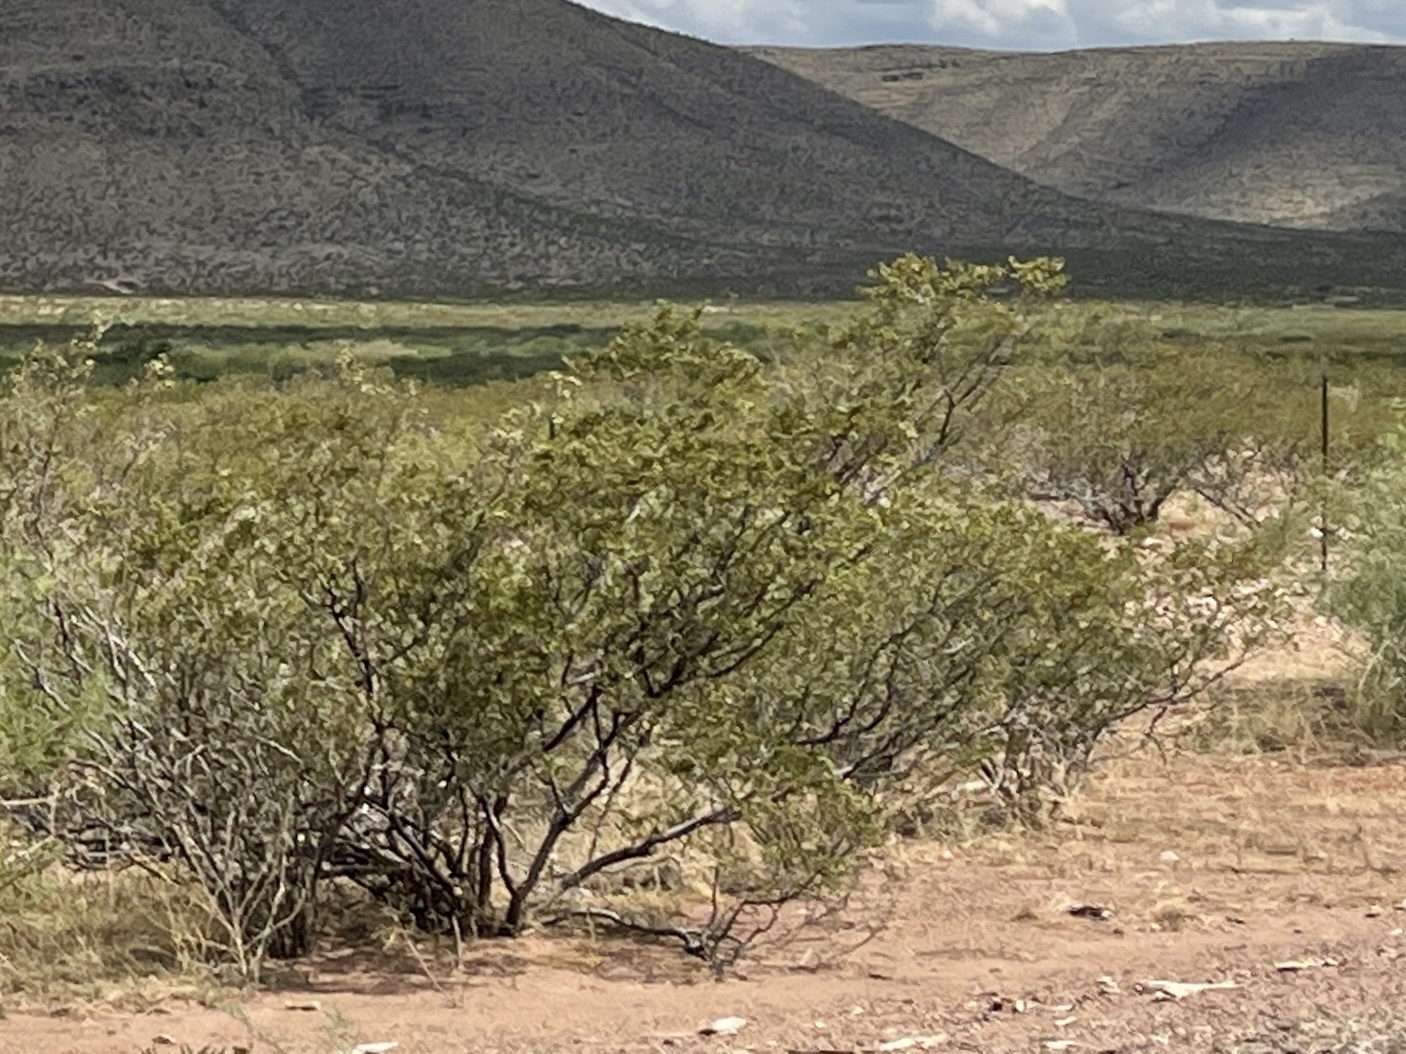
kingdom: Plantae
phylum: Tracheophyta
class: Magnoliopsida
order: Zygophyllales
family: Zygophyllaceae
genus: Larrea
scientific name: Larrea tridentata
